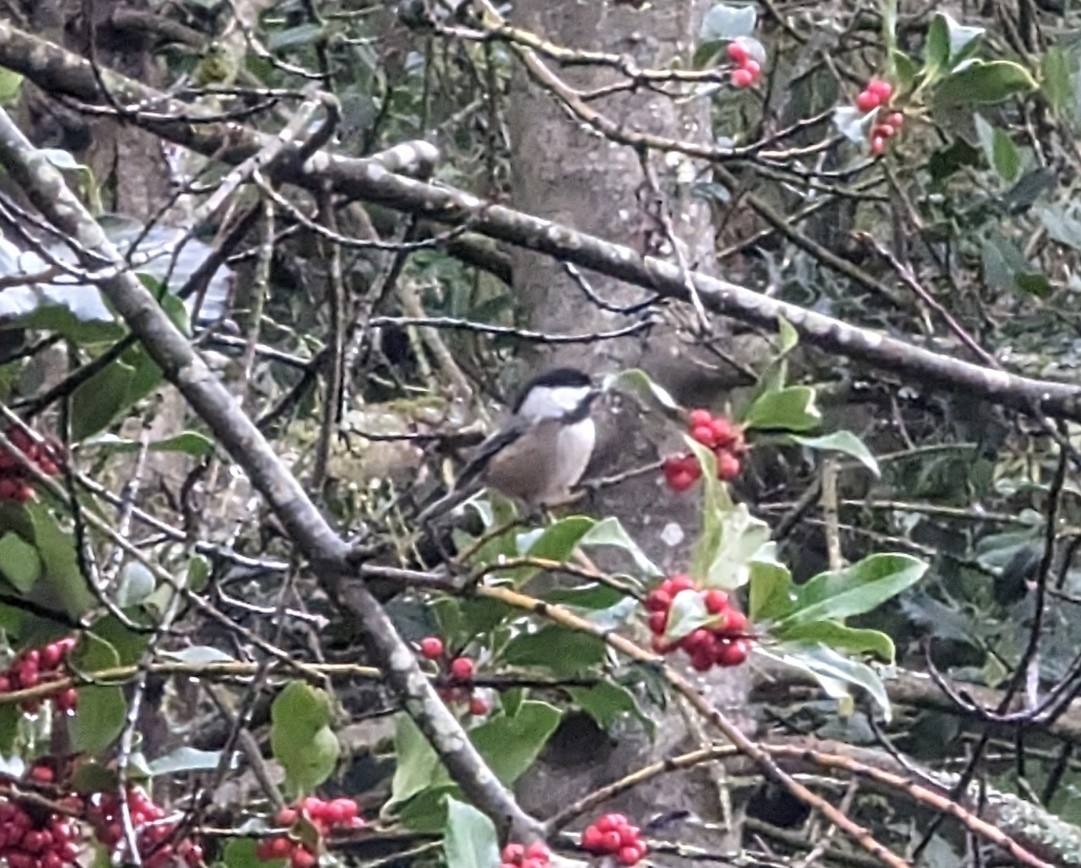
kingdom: Animalia
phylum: Chordata
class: Aves
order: Passeriformes
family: Paridae
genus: Poecile
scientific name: Poecile atricapillus
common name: Black-capped chickadee
